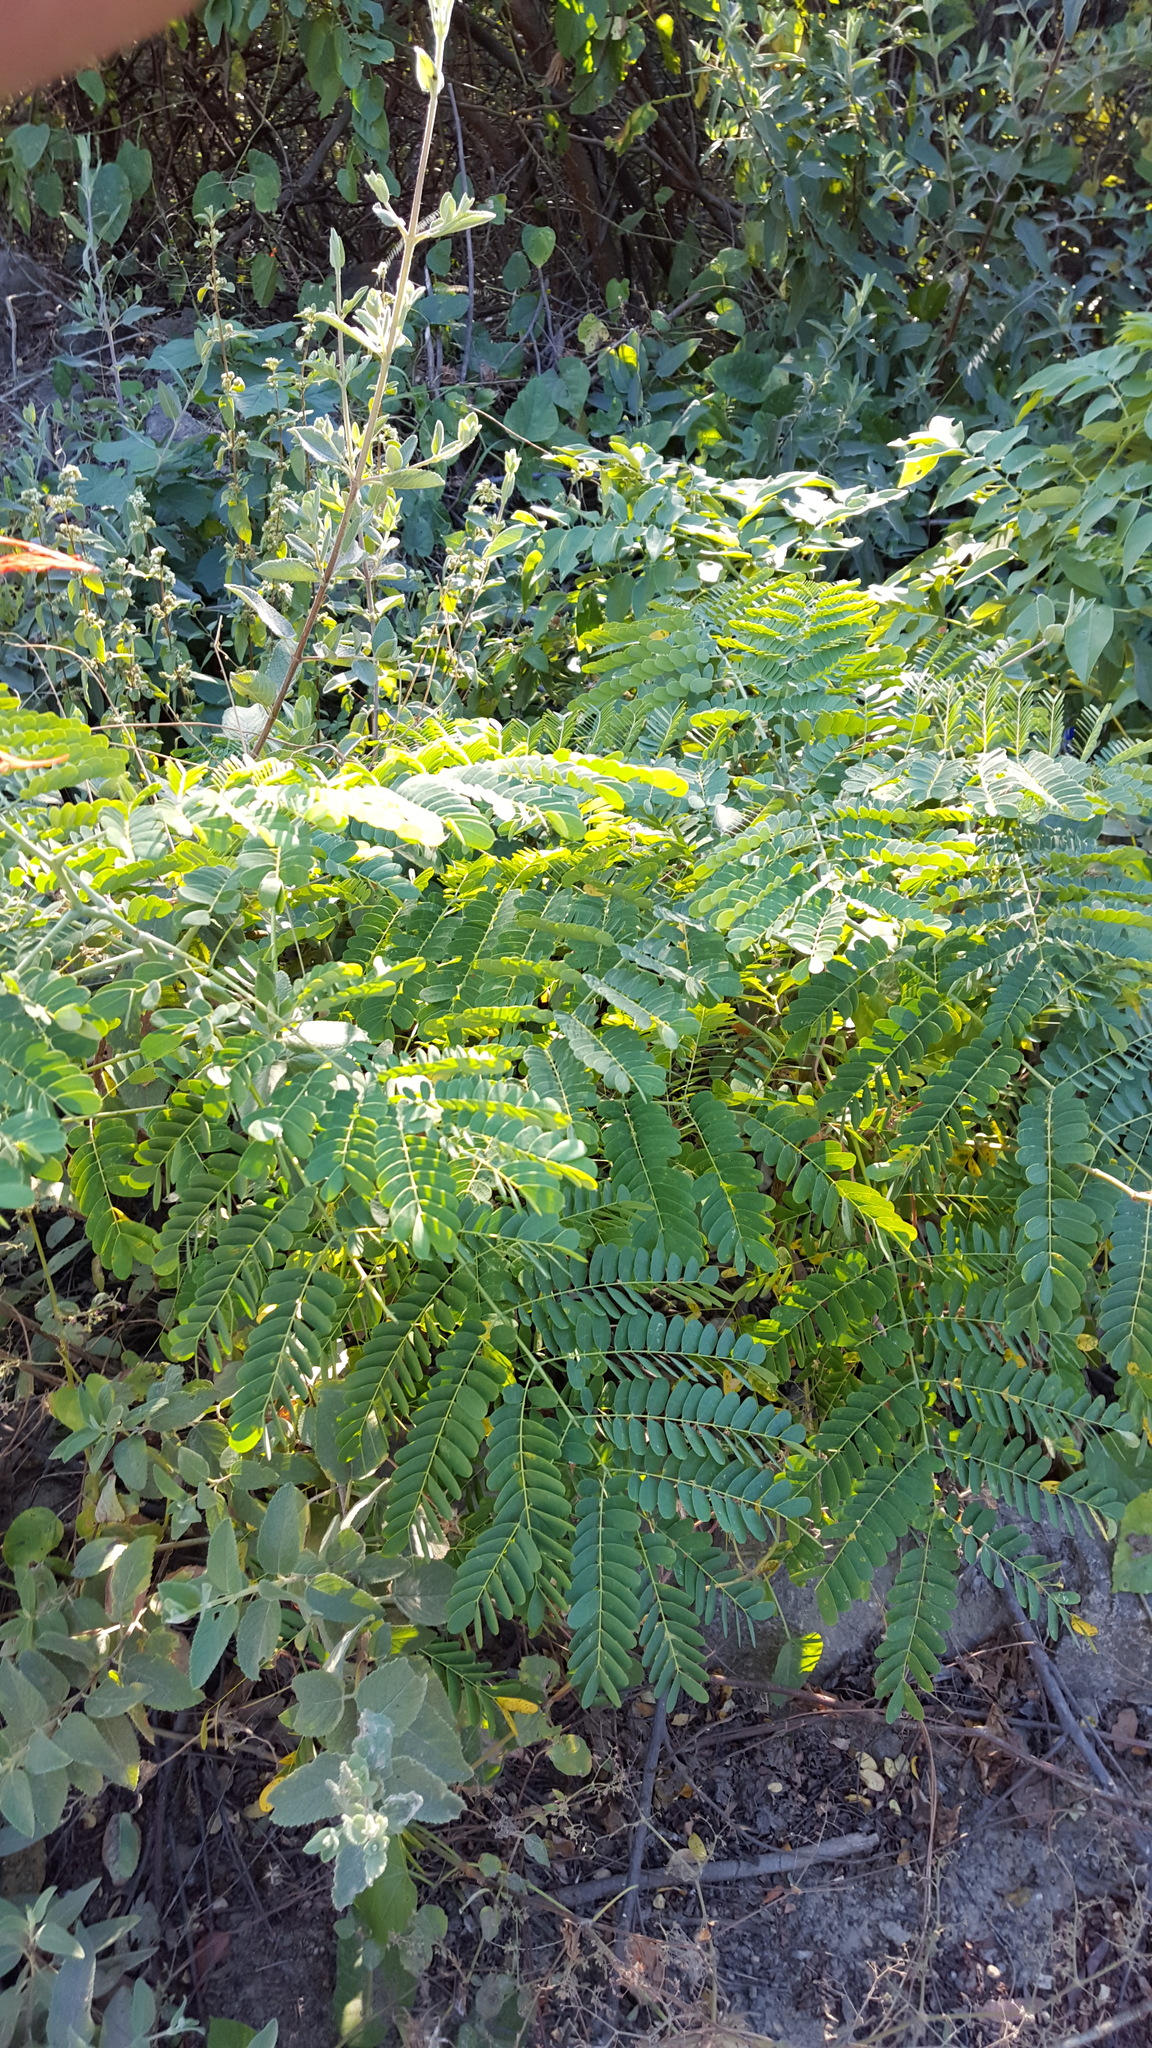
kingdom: Plantae
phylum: Tracheophyta
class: Magnoliopsida
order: Fabales
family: Fabaceae
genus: Caesalpinia
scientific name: Caesalpinia pulcherrima
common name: Pride-of-barbados
